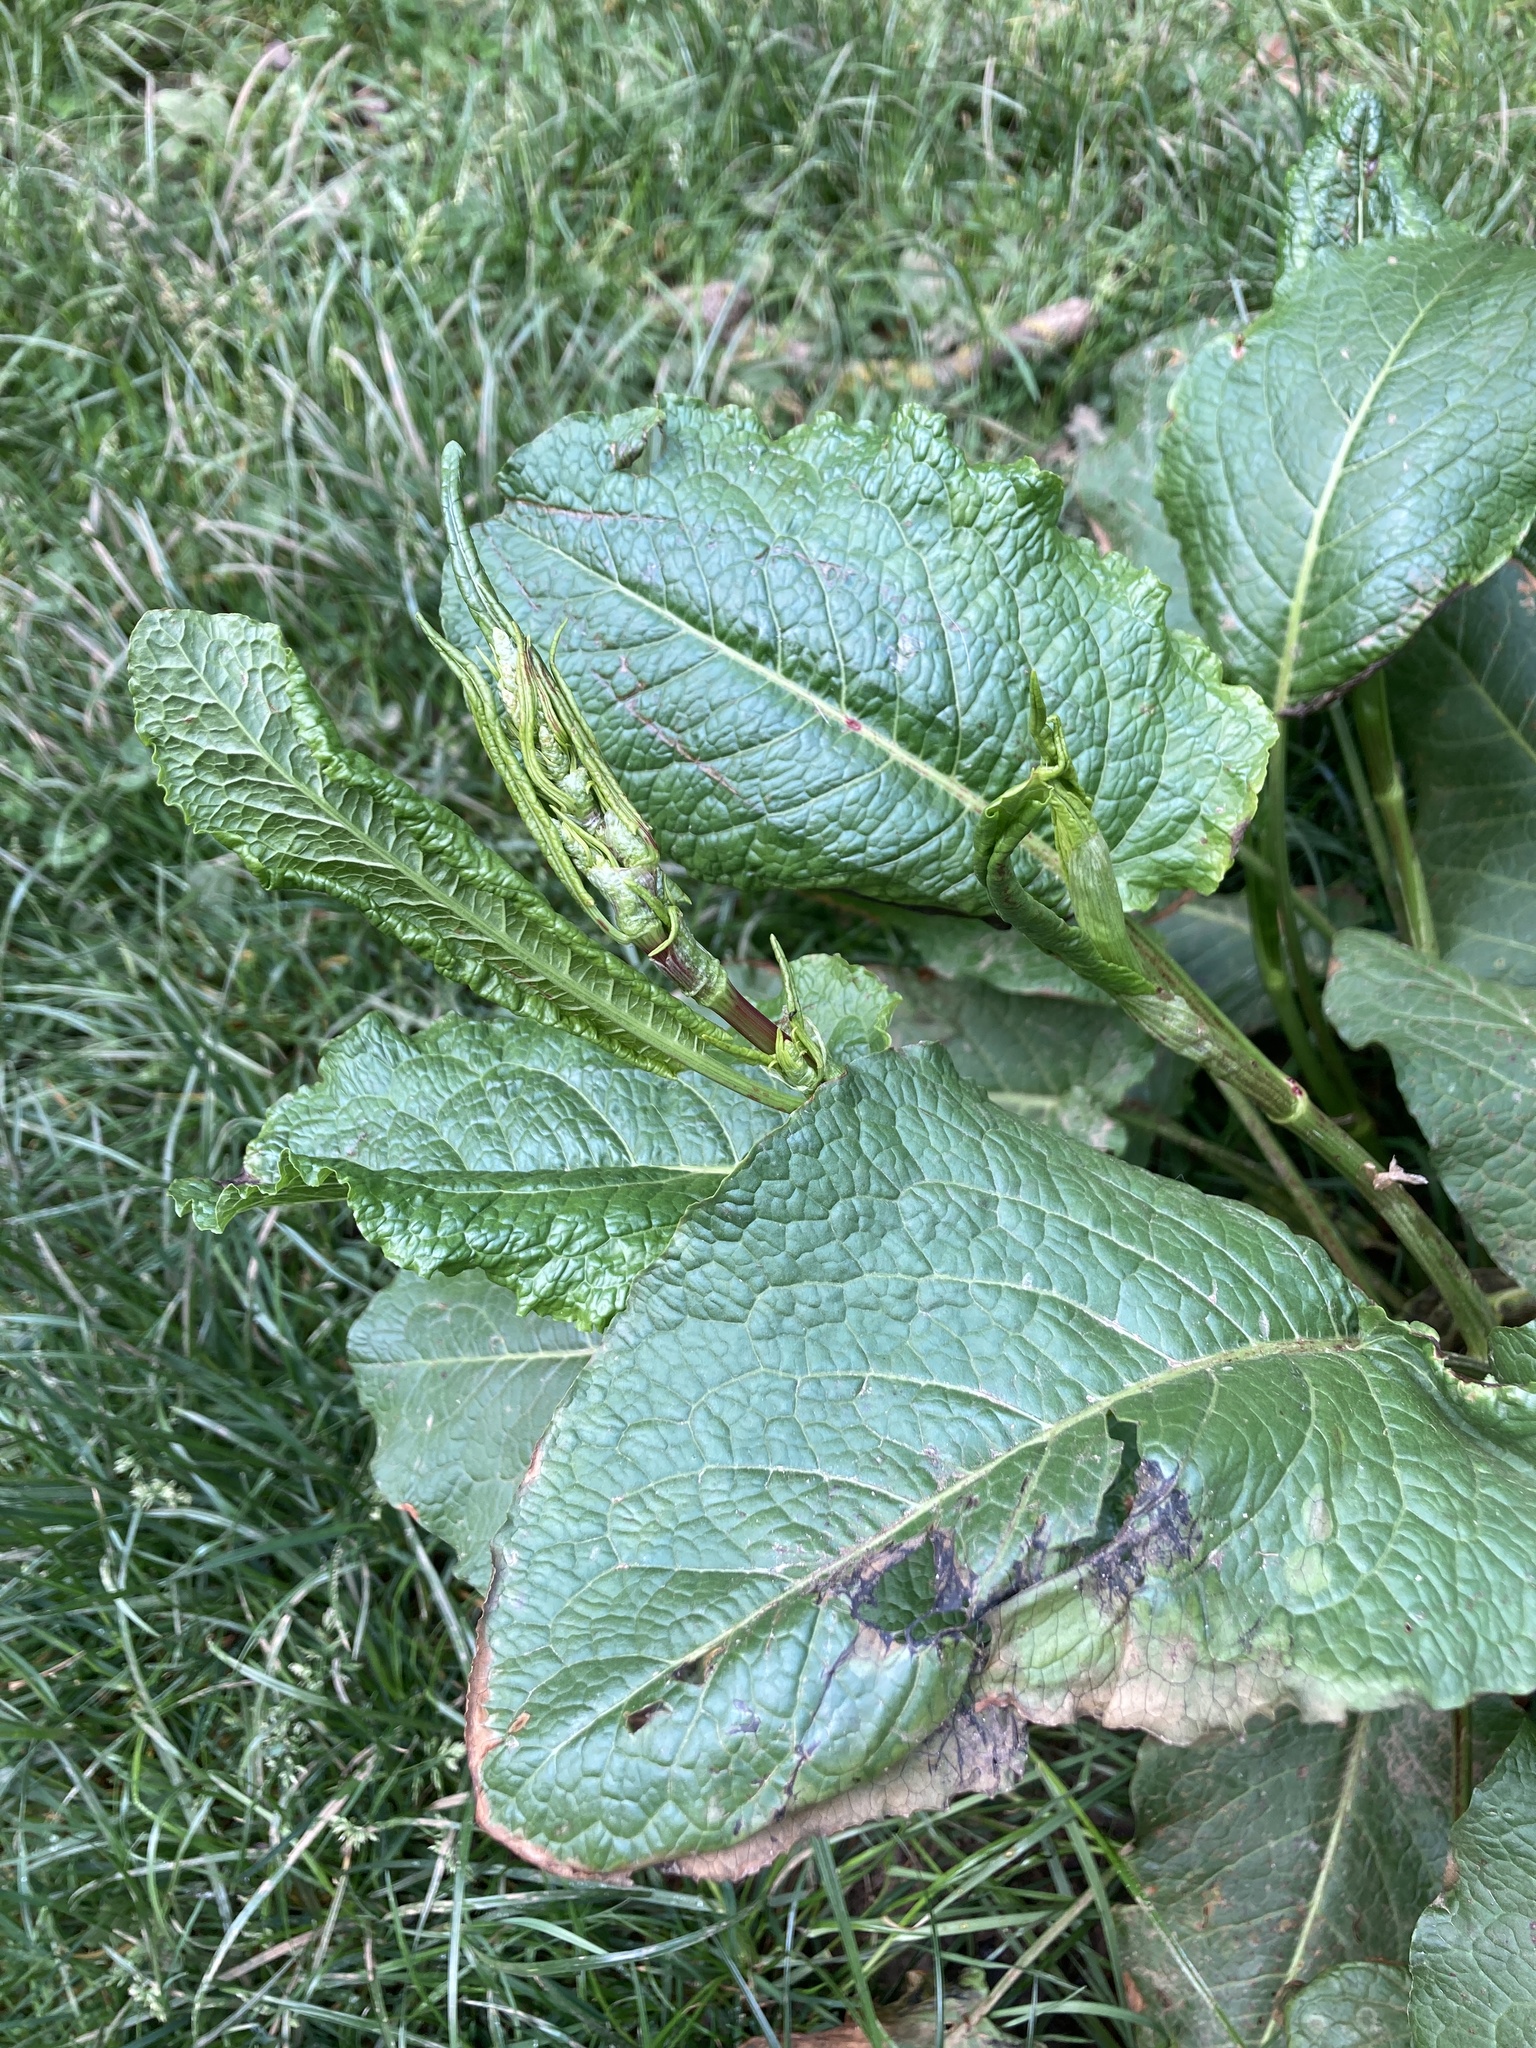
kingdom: Plantae
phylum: Tracheophyta
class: Magnoliopsida
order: Caryophyllales
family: Polygonaceae
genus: Rumex
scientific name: Rumex obtusifolius
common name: Bitter dock
